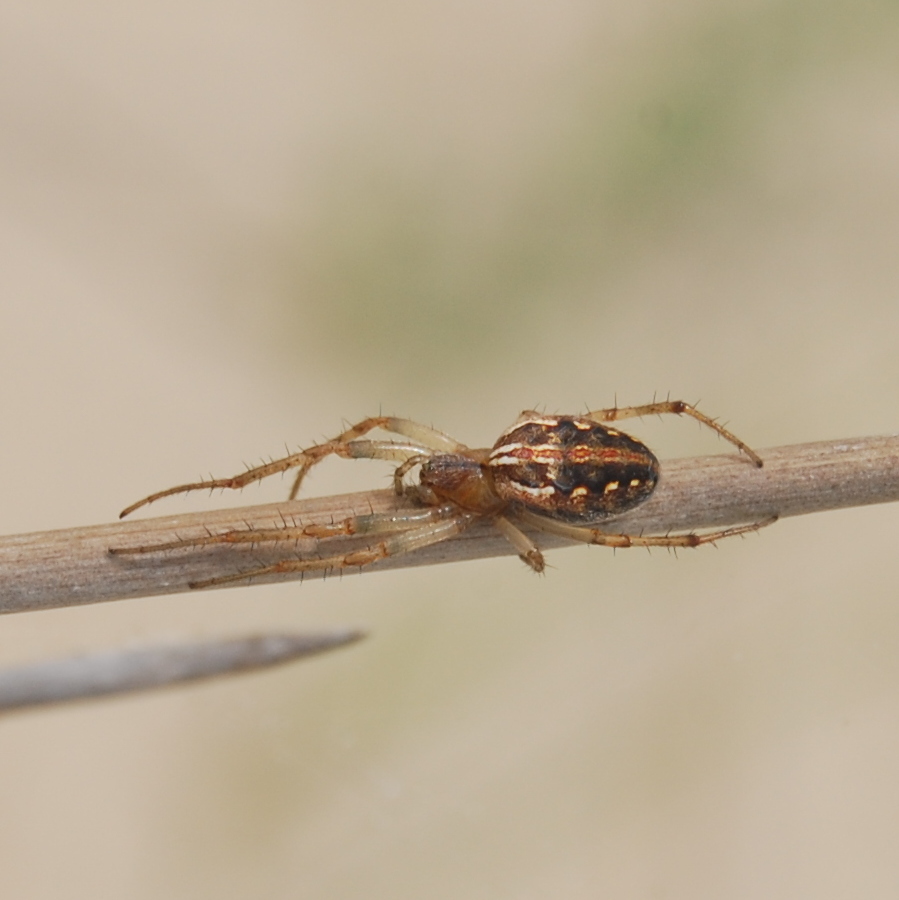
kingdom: Animalia
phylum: Arthropoda
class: Arachnida
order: Araneae
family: Araneidae
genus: Neoscona
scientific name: Neoscona moreli
